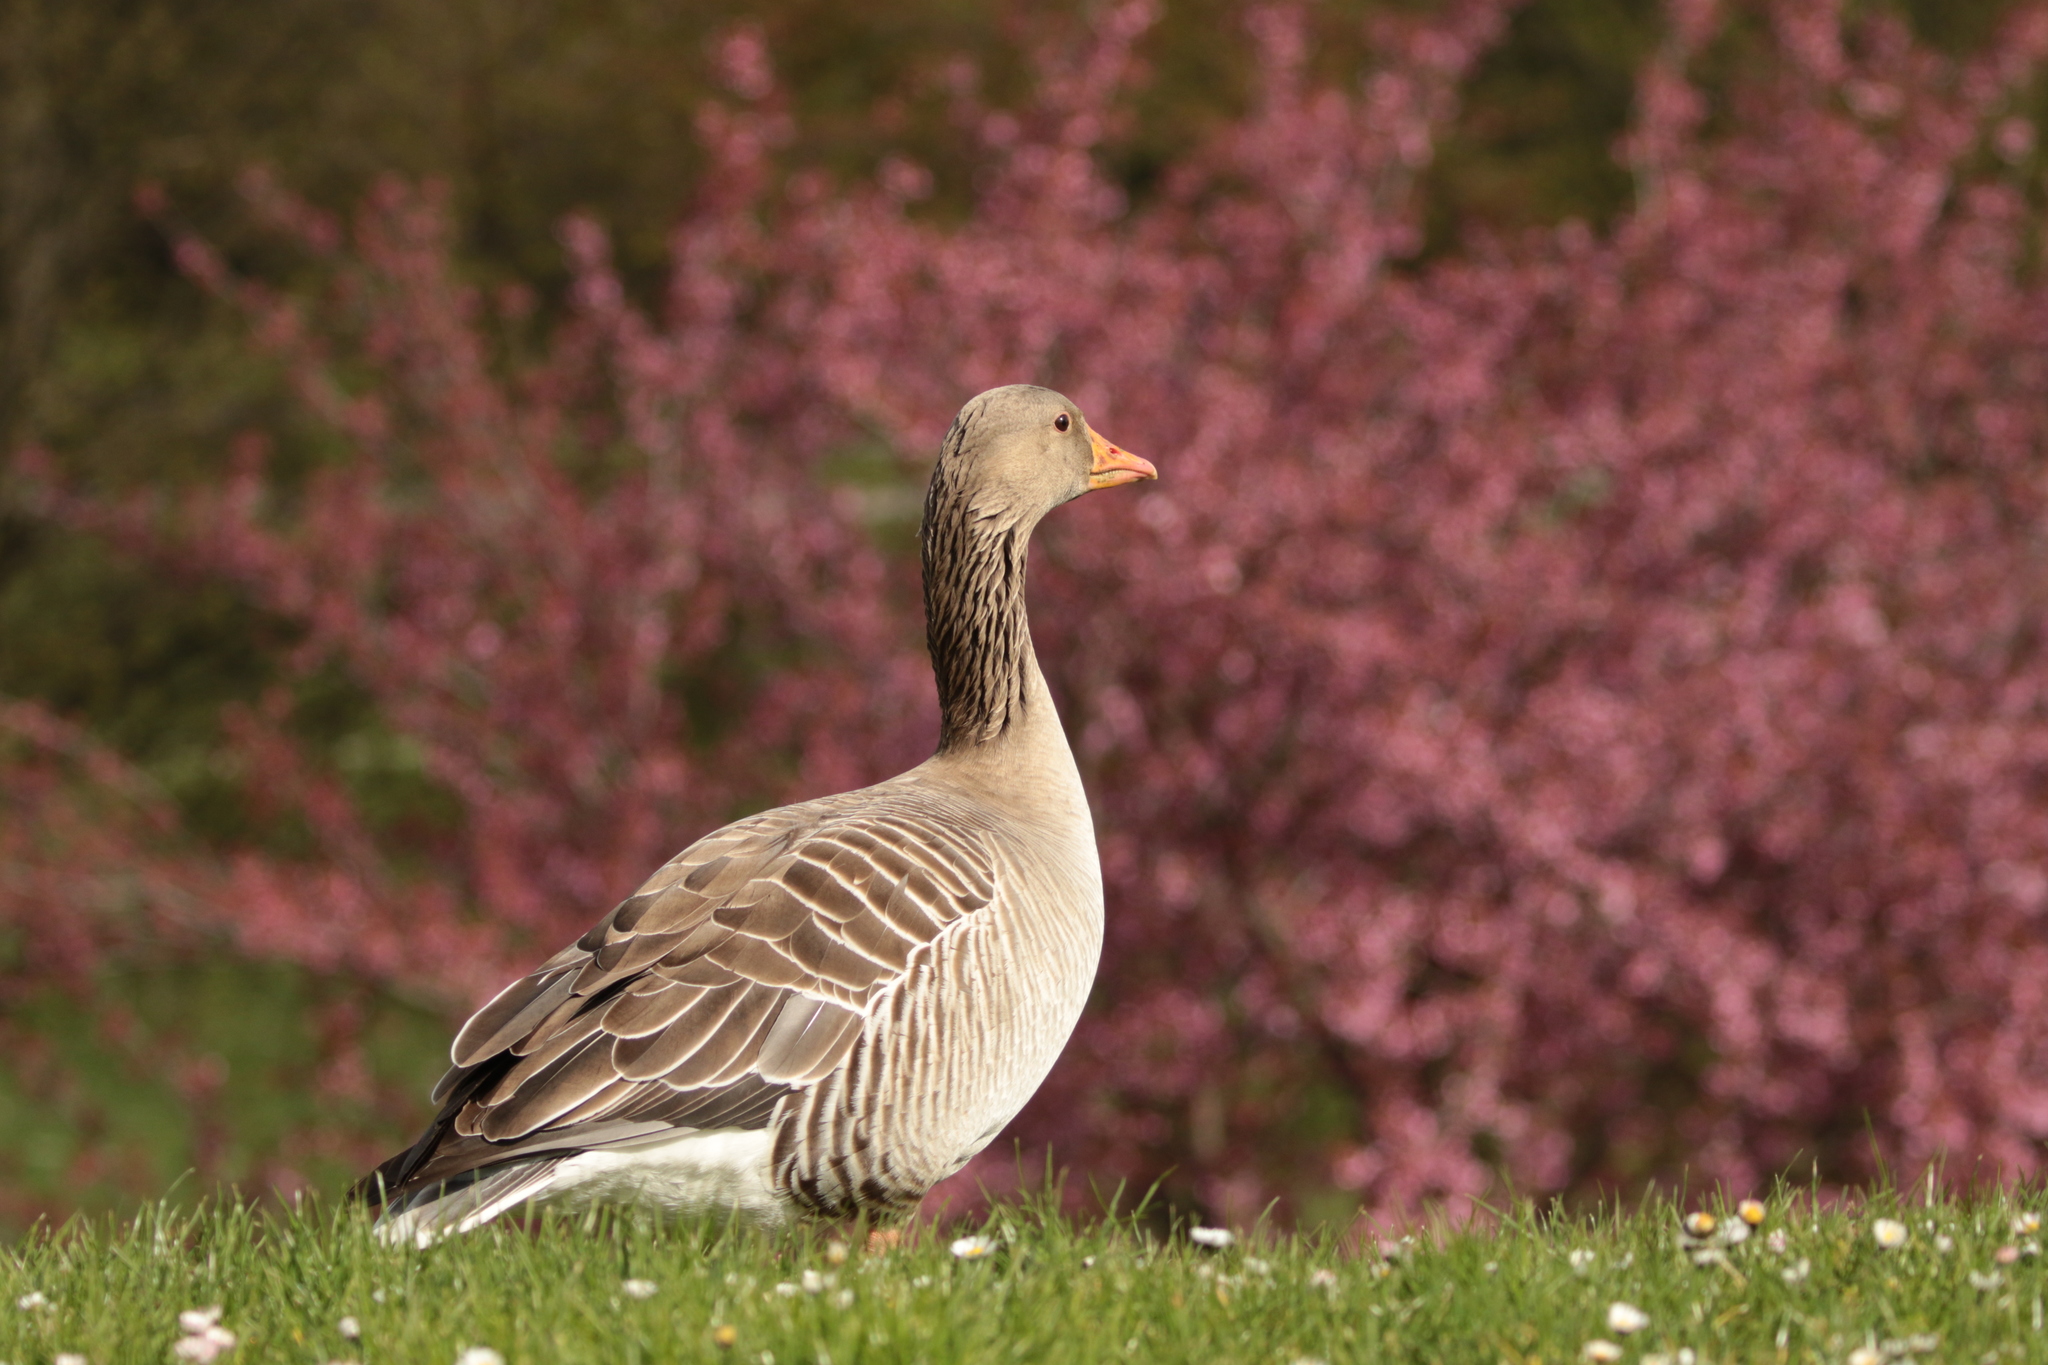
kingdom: Animalia
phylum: Chordata
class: Aves
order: Anseriformes
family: Anatidae
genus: Anser
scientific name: Anser anser
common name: Greylag goose
